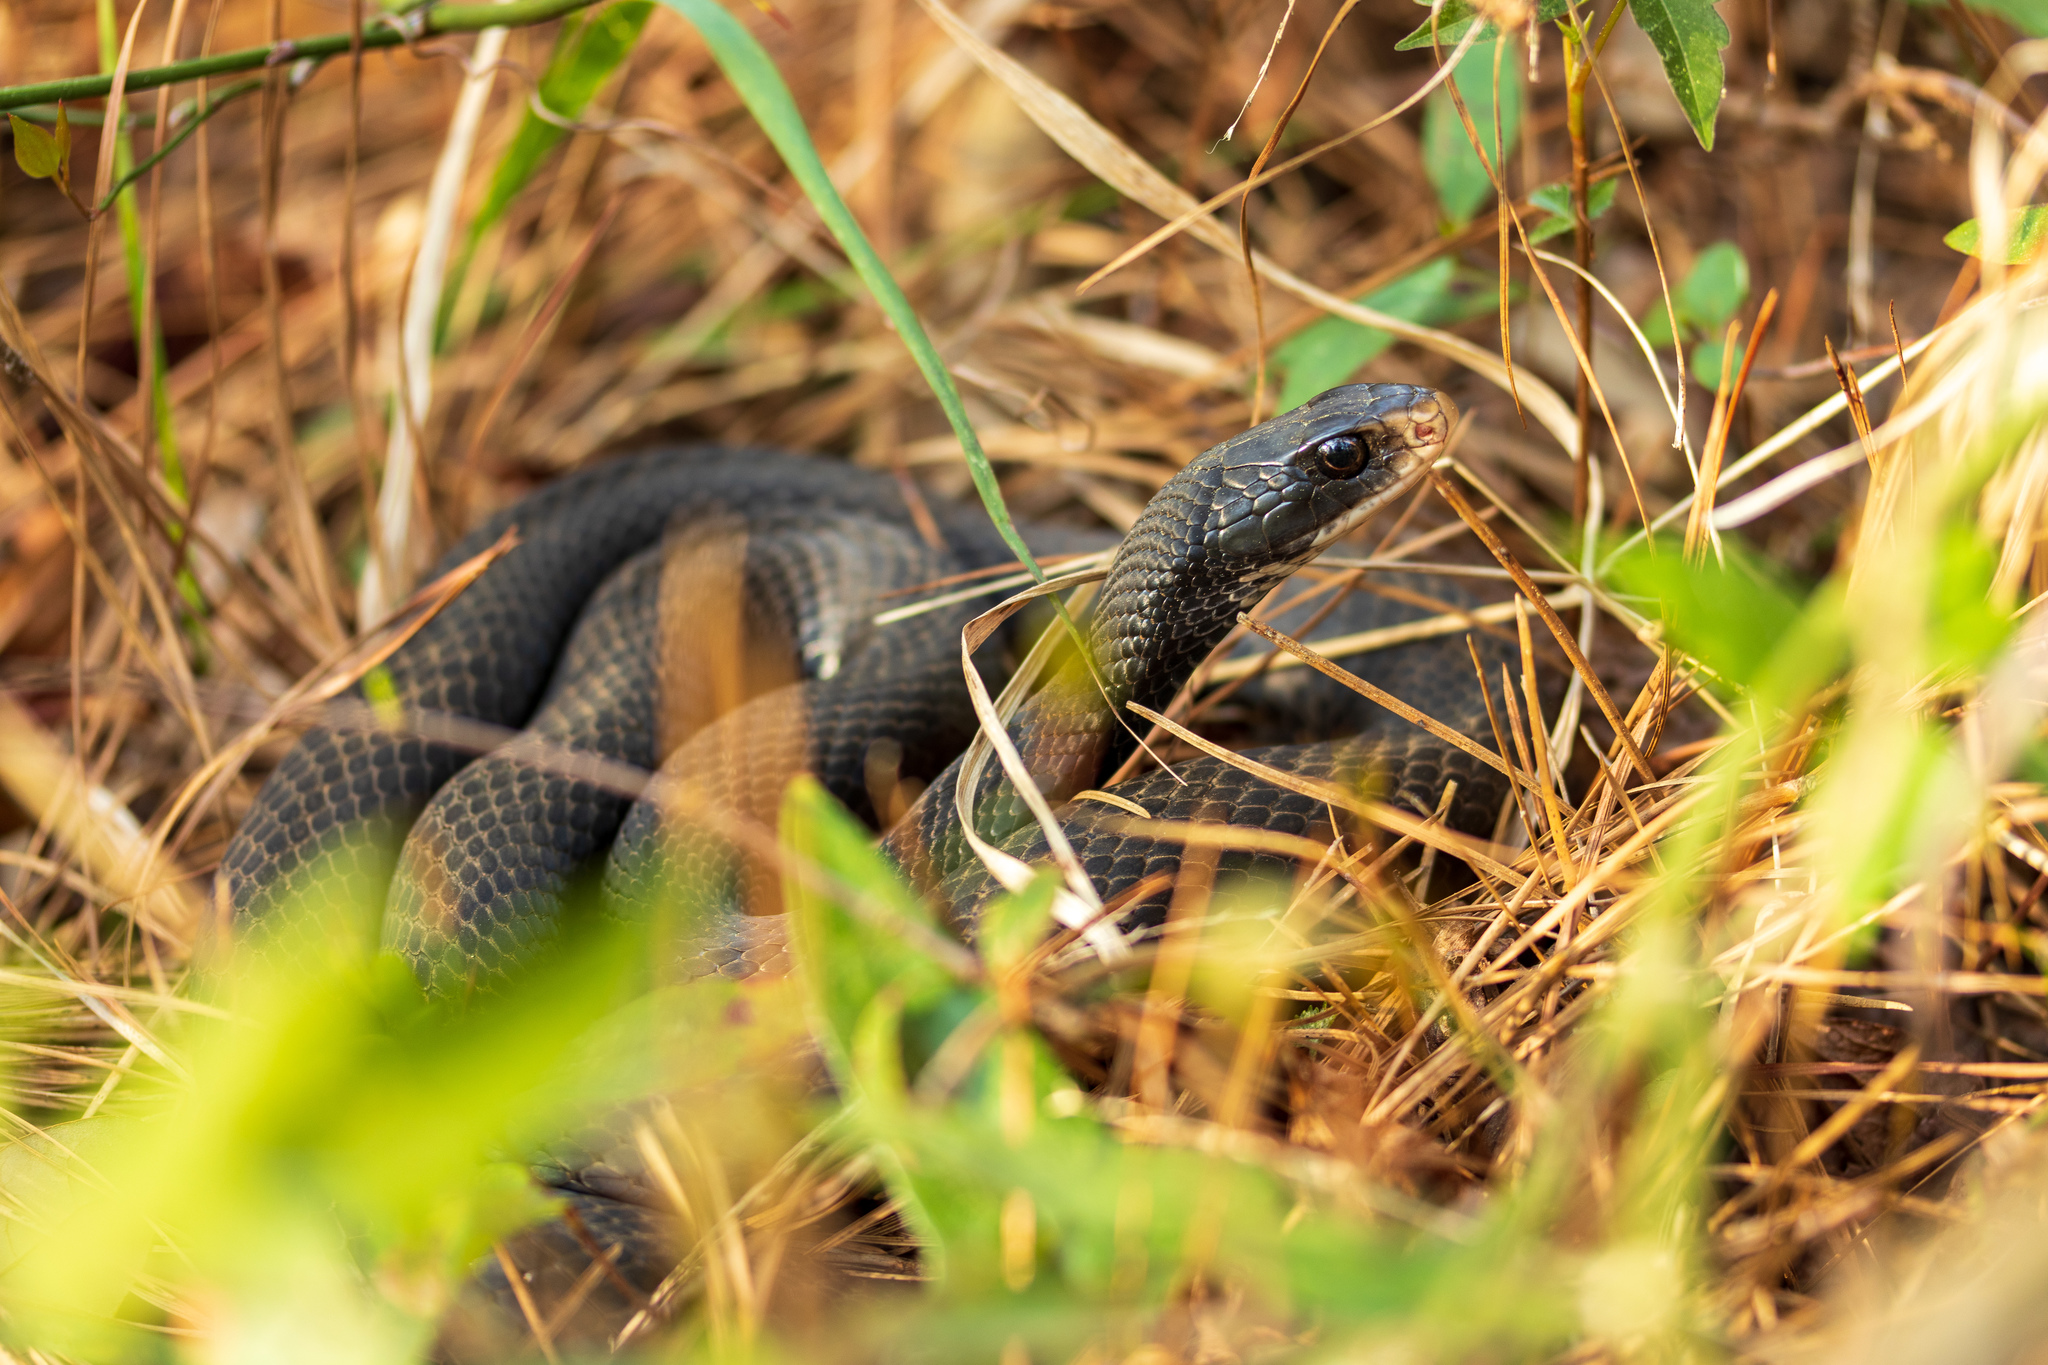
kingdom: Animalia
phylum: Chordata
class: Squamata
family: Colubridae
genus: Coluber
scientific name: Coluber constrictor
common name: Eastern racer
